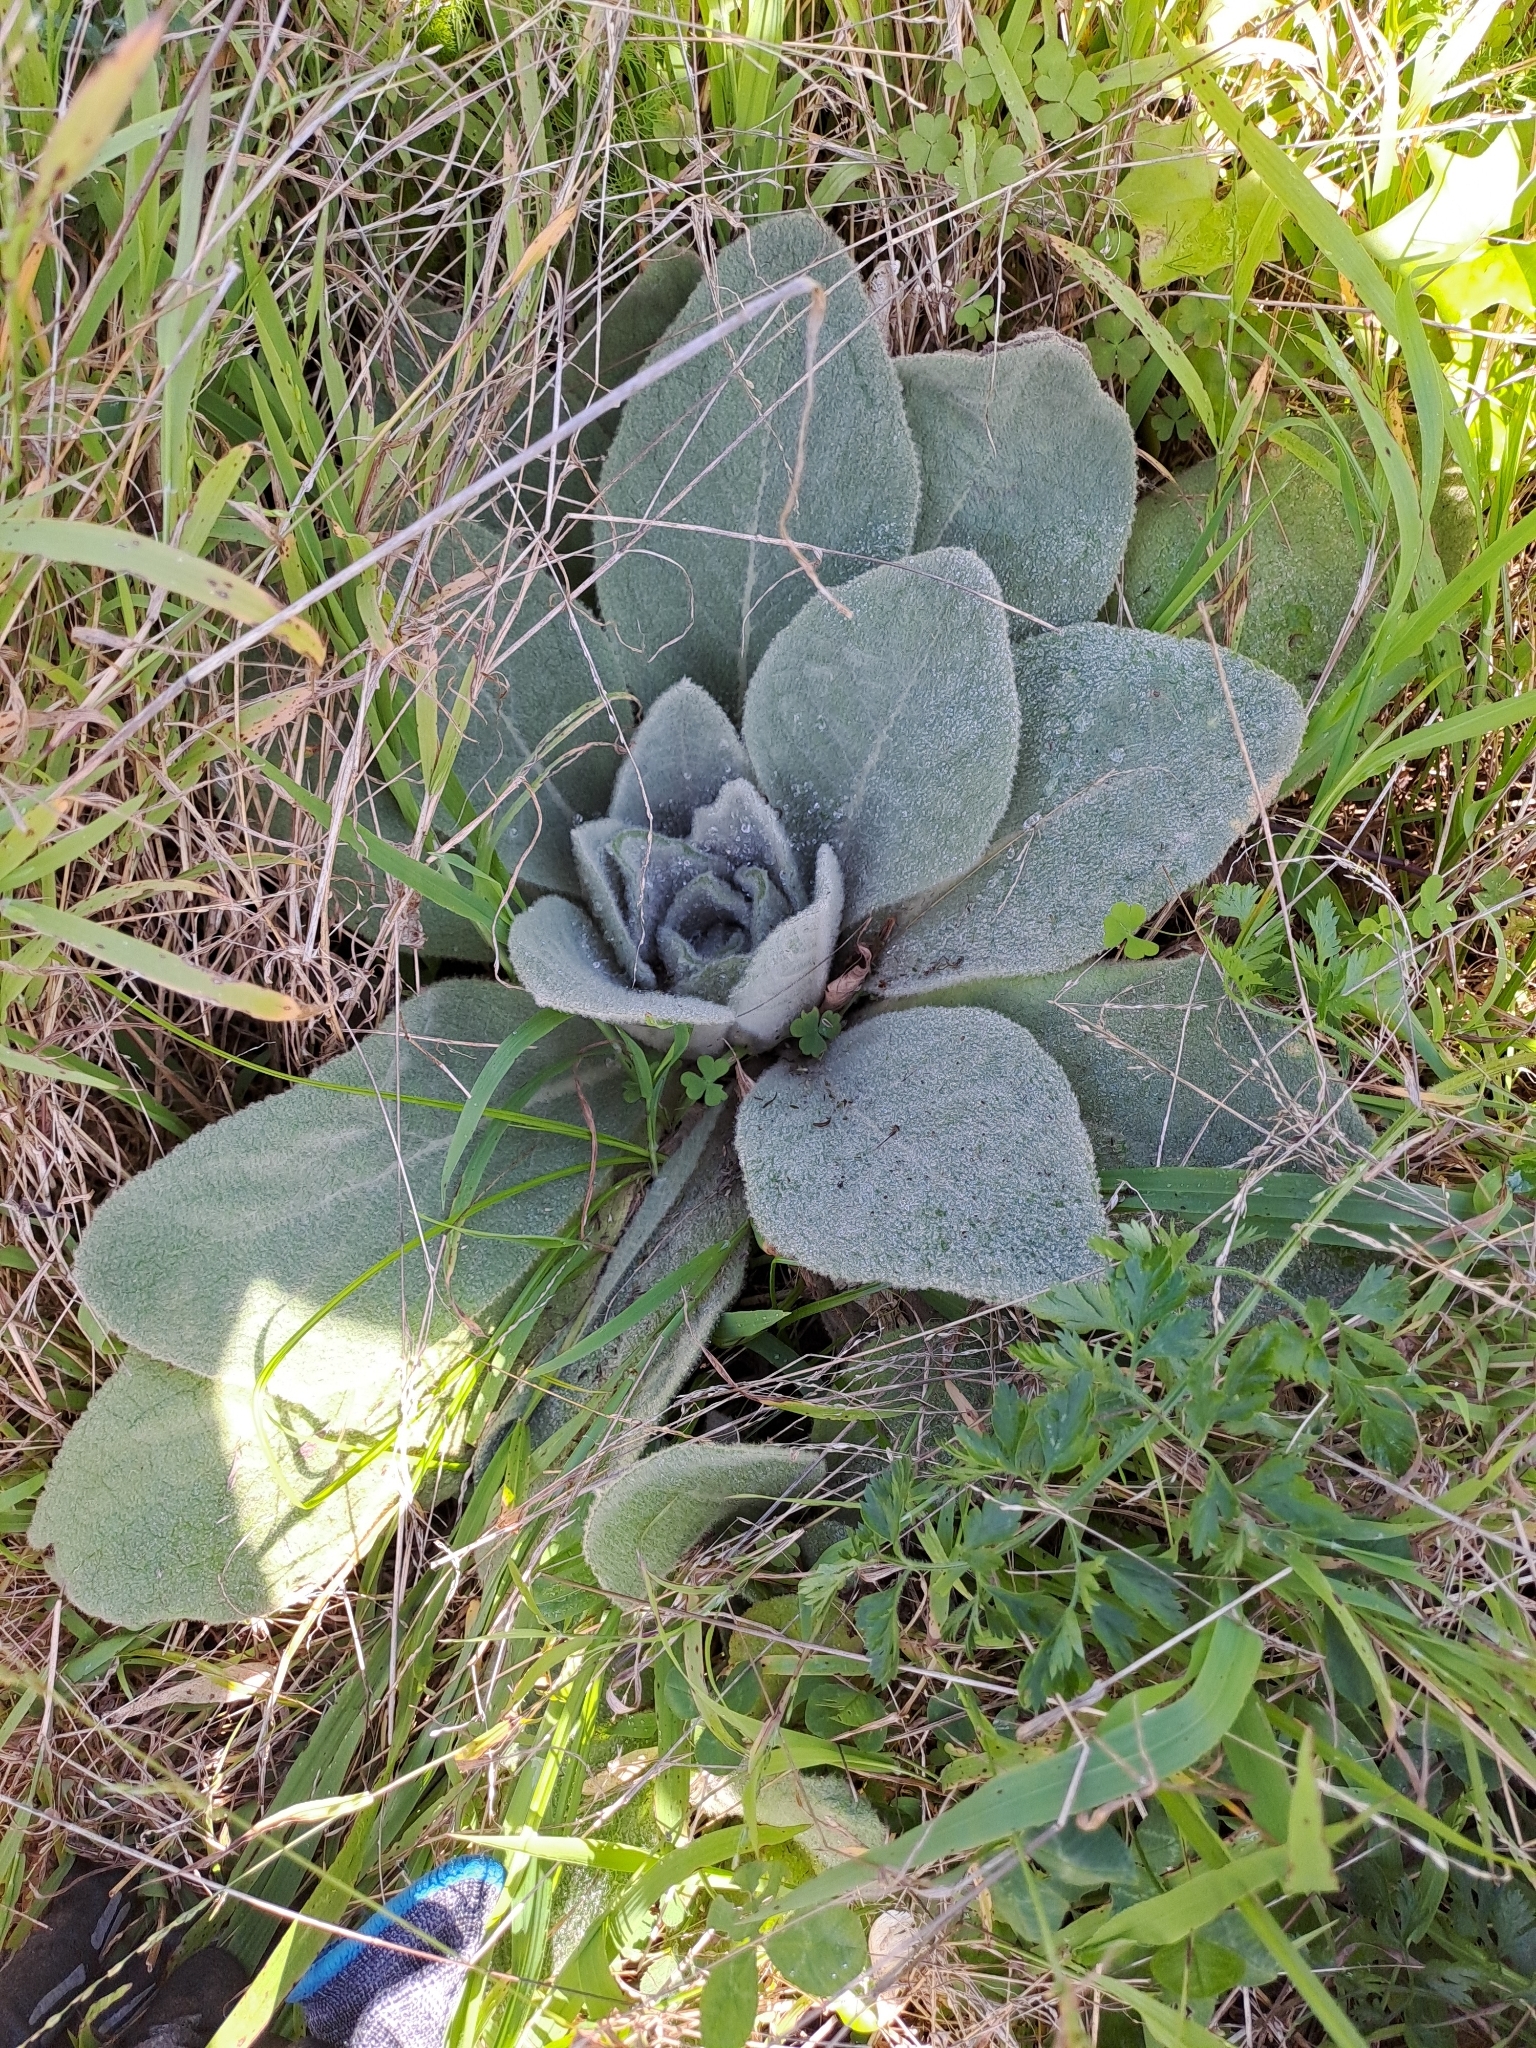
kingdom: Plantae
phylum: Tracheophyta
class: Magnoliopsida
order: Lamiales
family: Scrophulariaceae
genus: Verbascum
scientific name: Verbascum thapsus
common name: Common mullein
